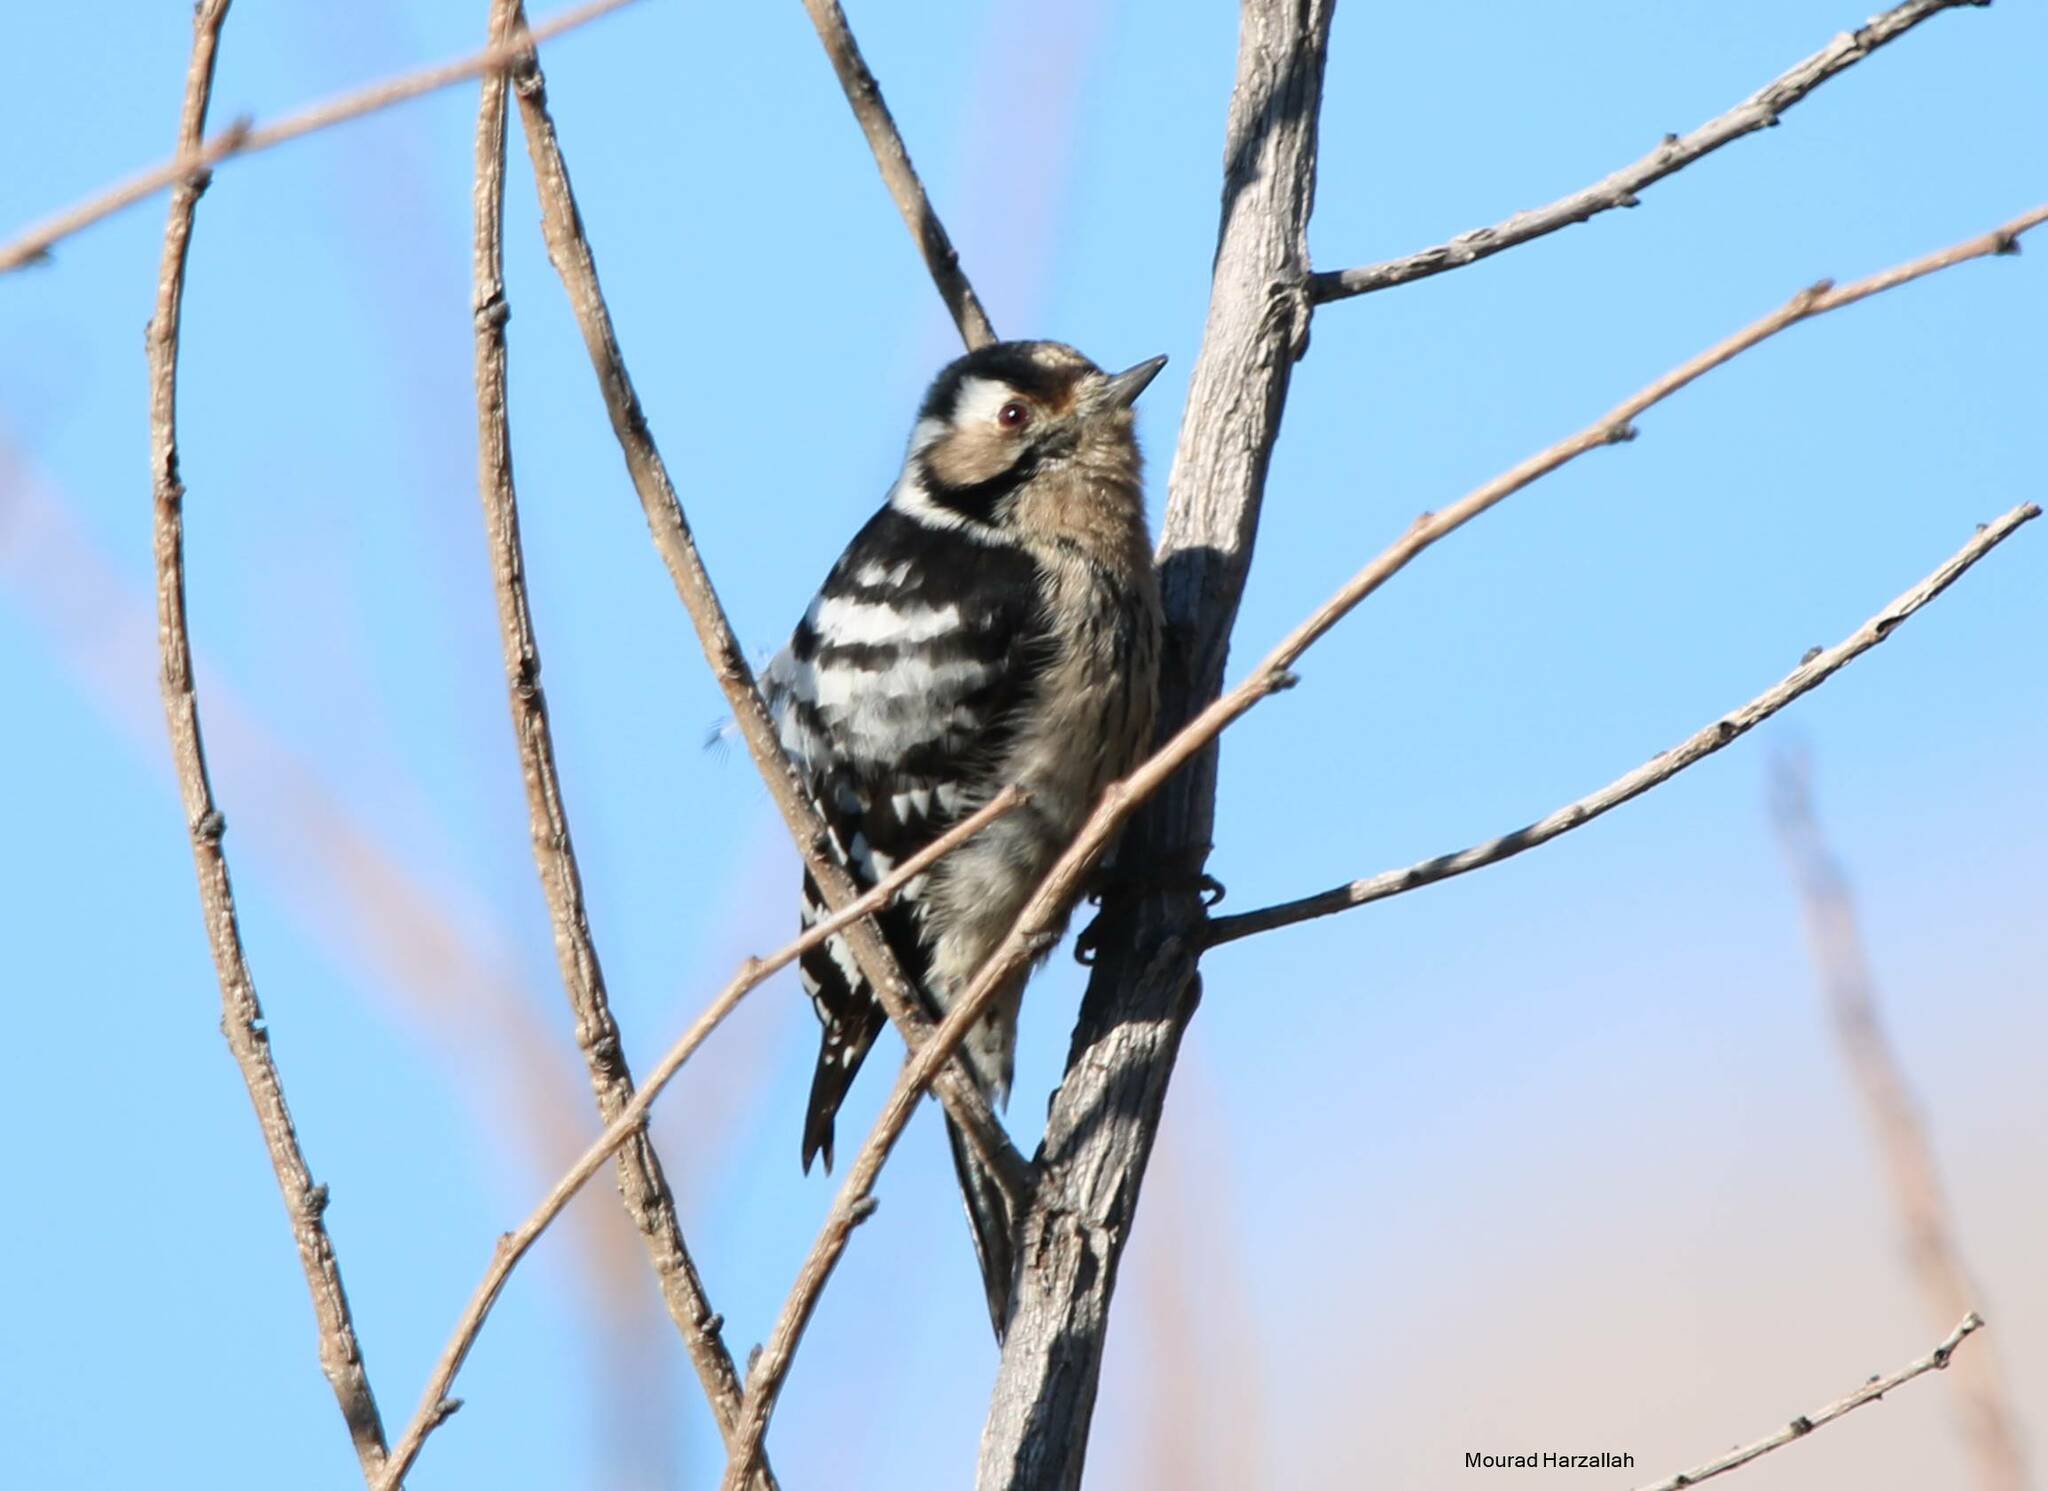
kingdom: Animalia
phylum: Chordata
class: Aves
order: Piciformes
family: Picidae
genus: Dryobates
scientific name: Dryobates minor
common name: Lesser spotted woodpecker
